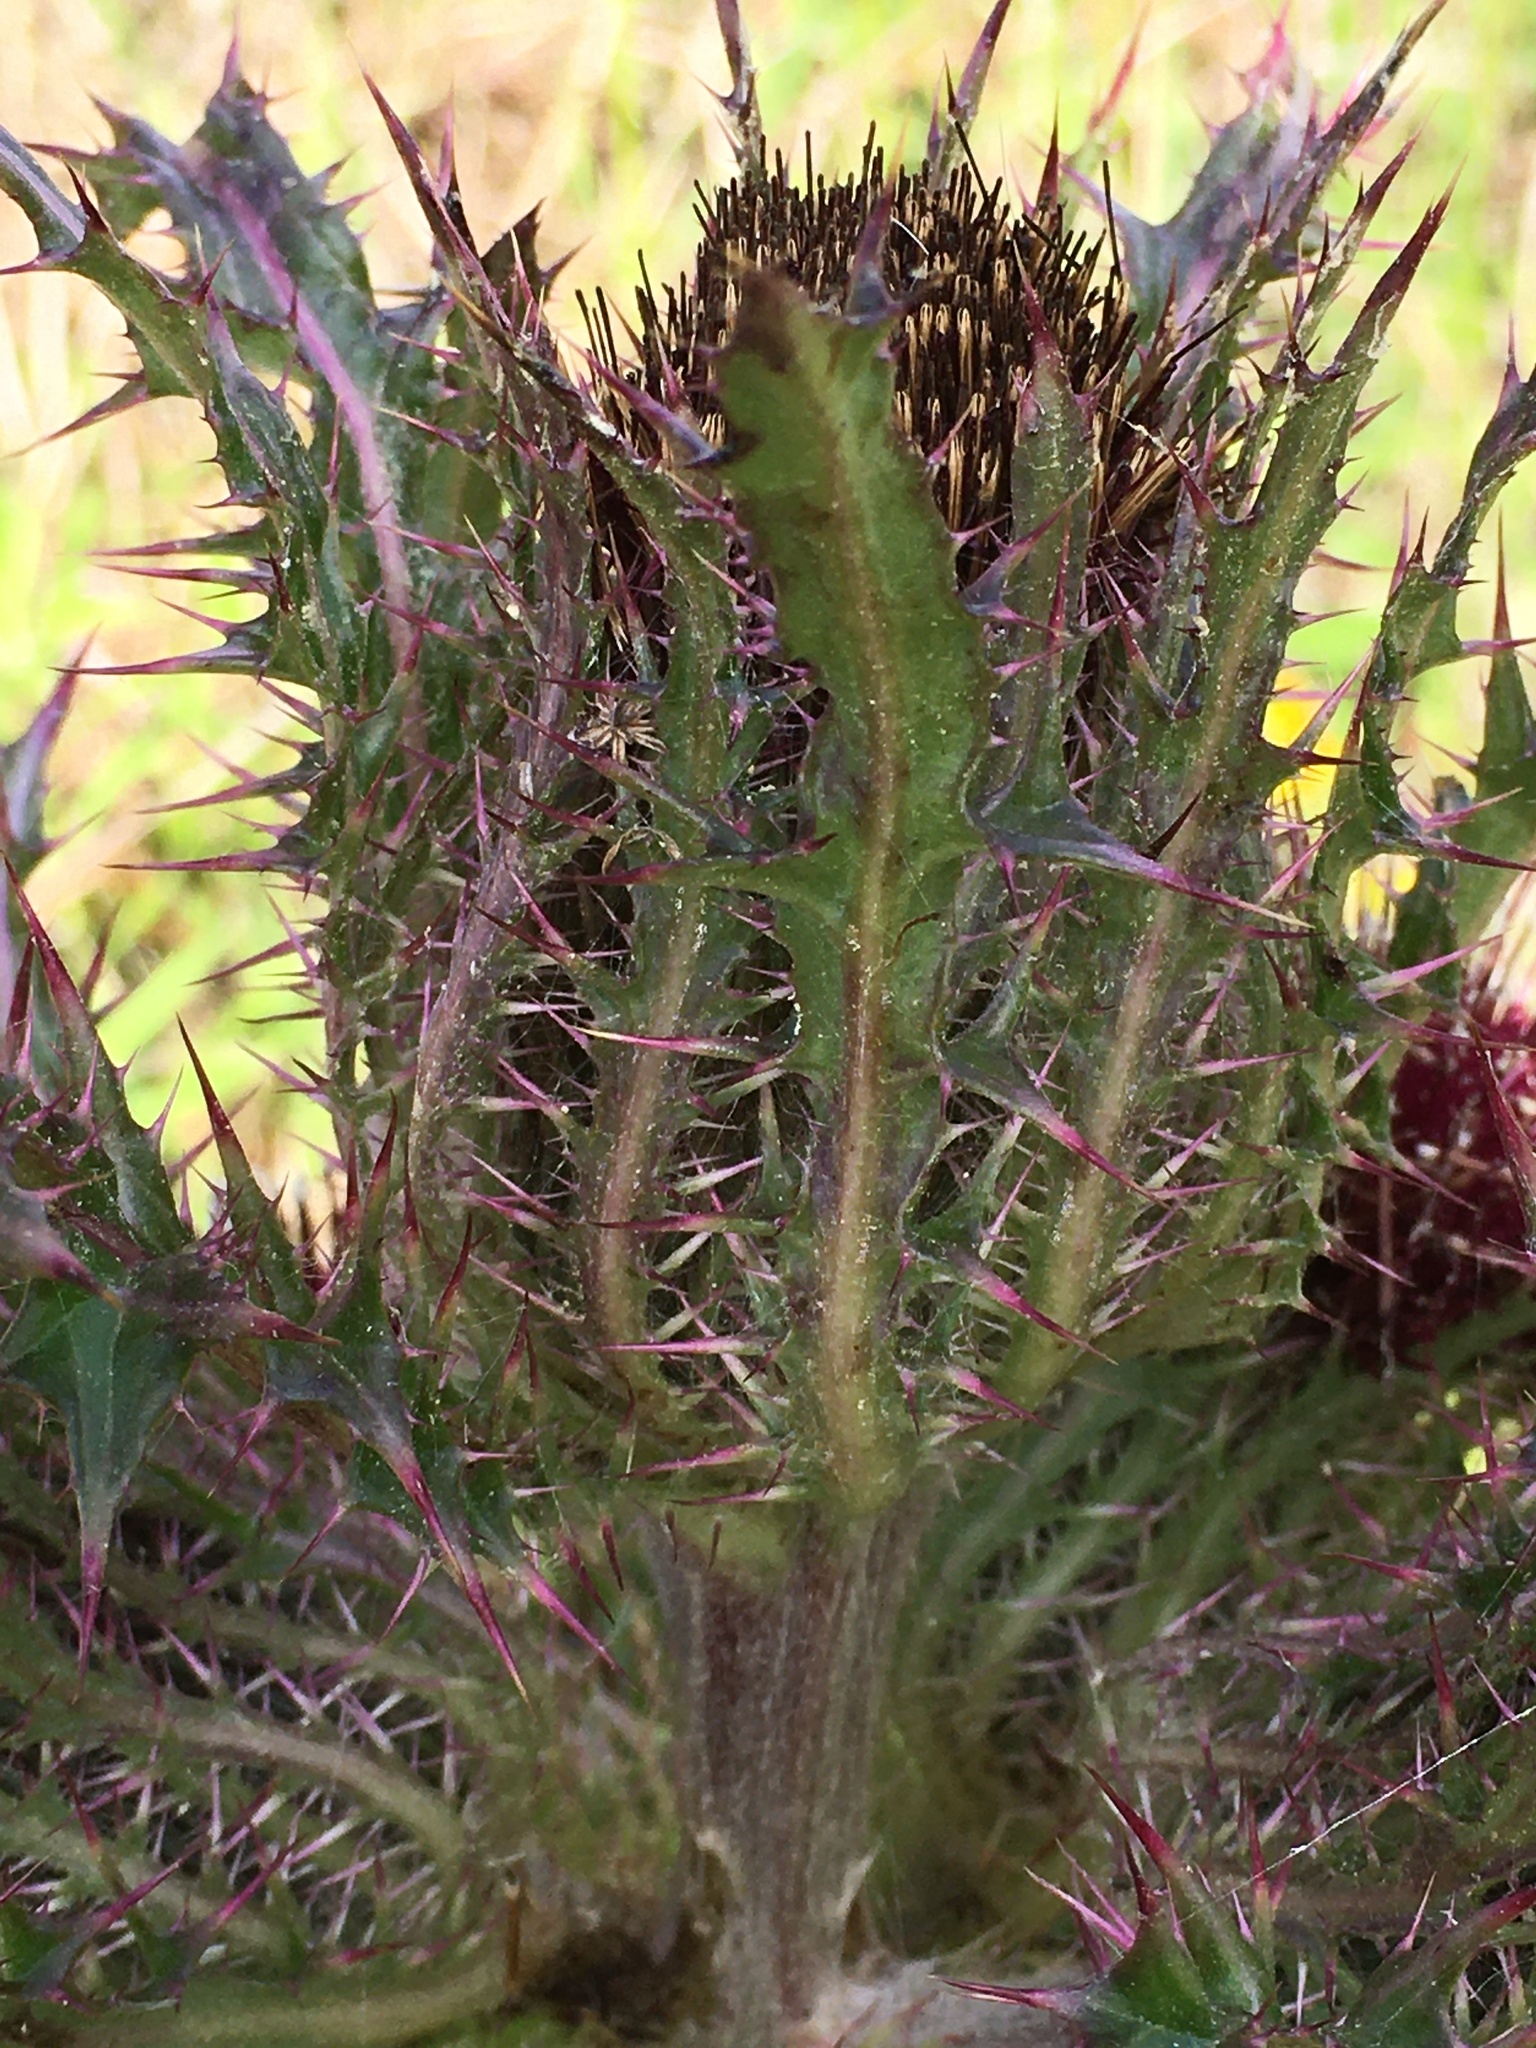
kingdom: Plantae
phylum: Tracheophyta
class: Magnoliopsida
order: Asterales
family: Asteraceae
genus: Cirsium
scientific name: Cirsium horridulum
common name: Bristly thistle
